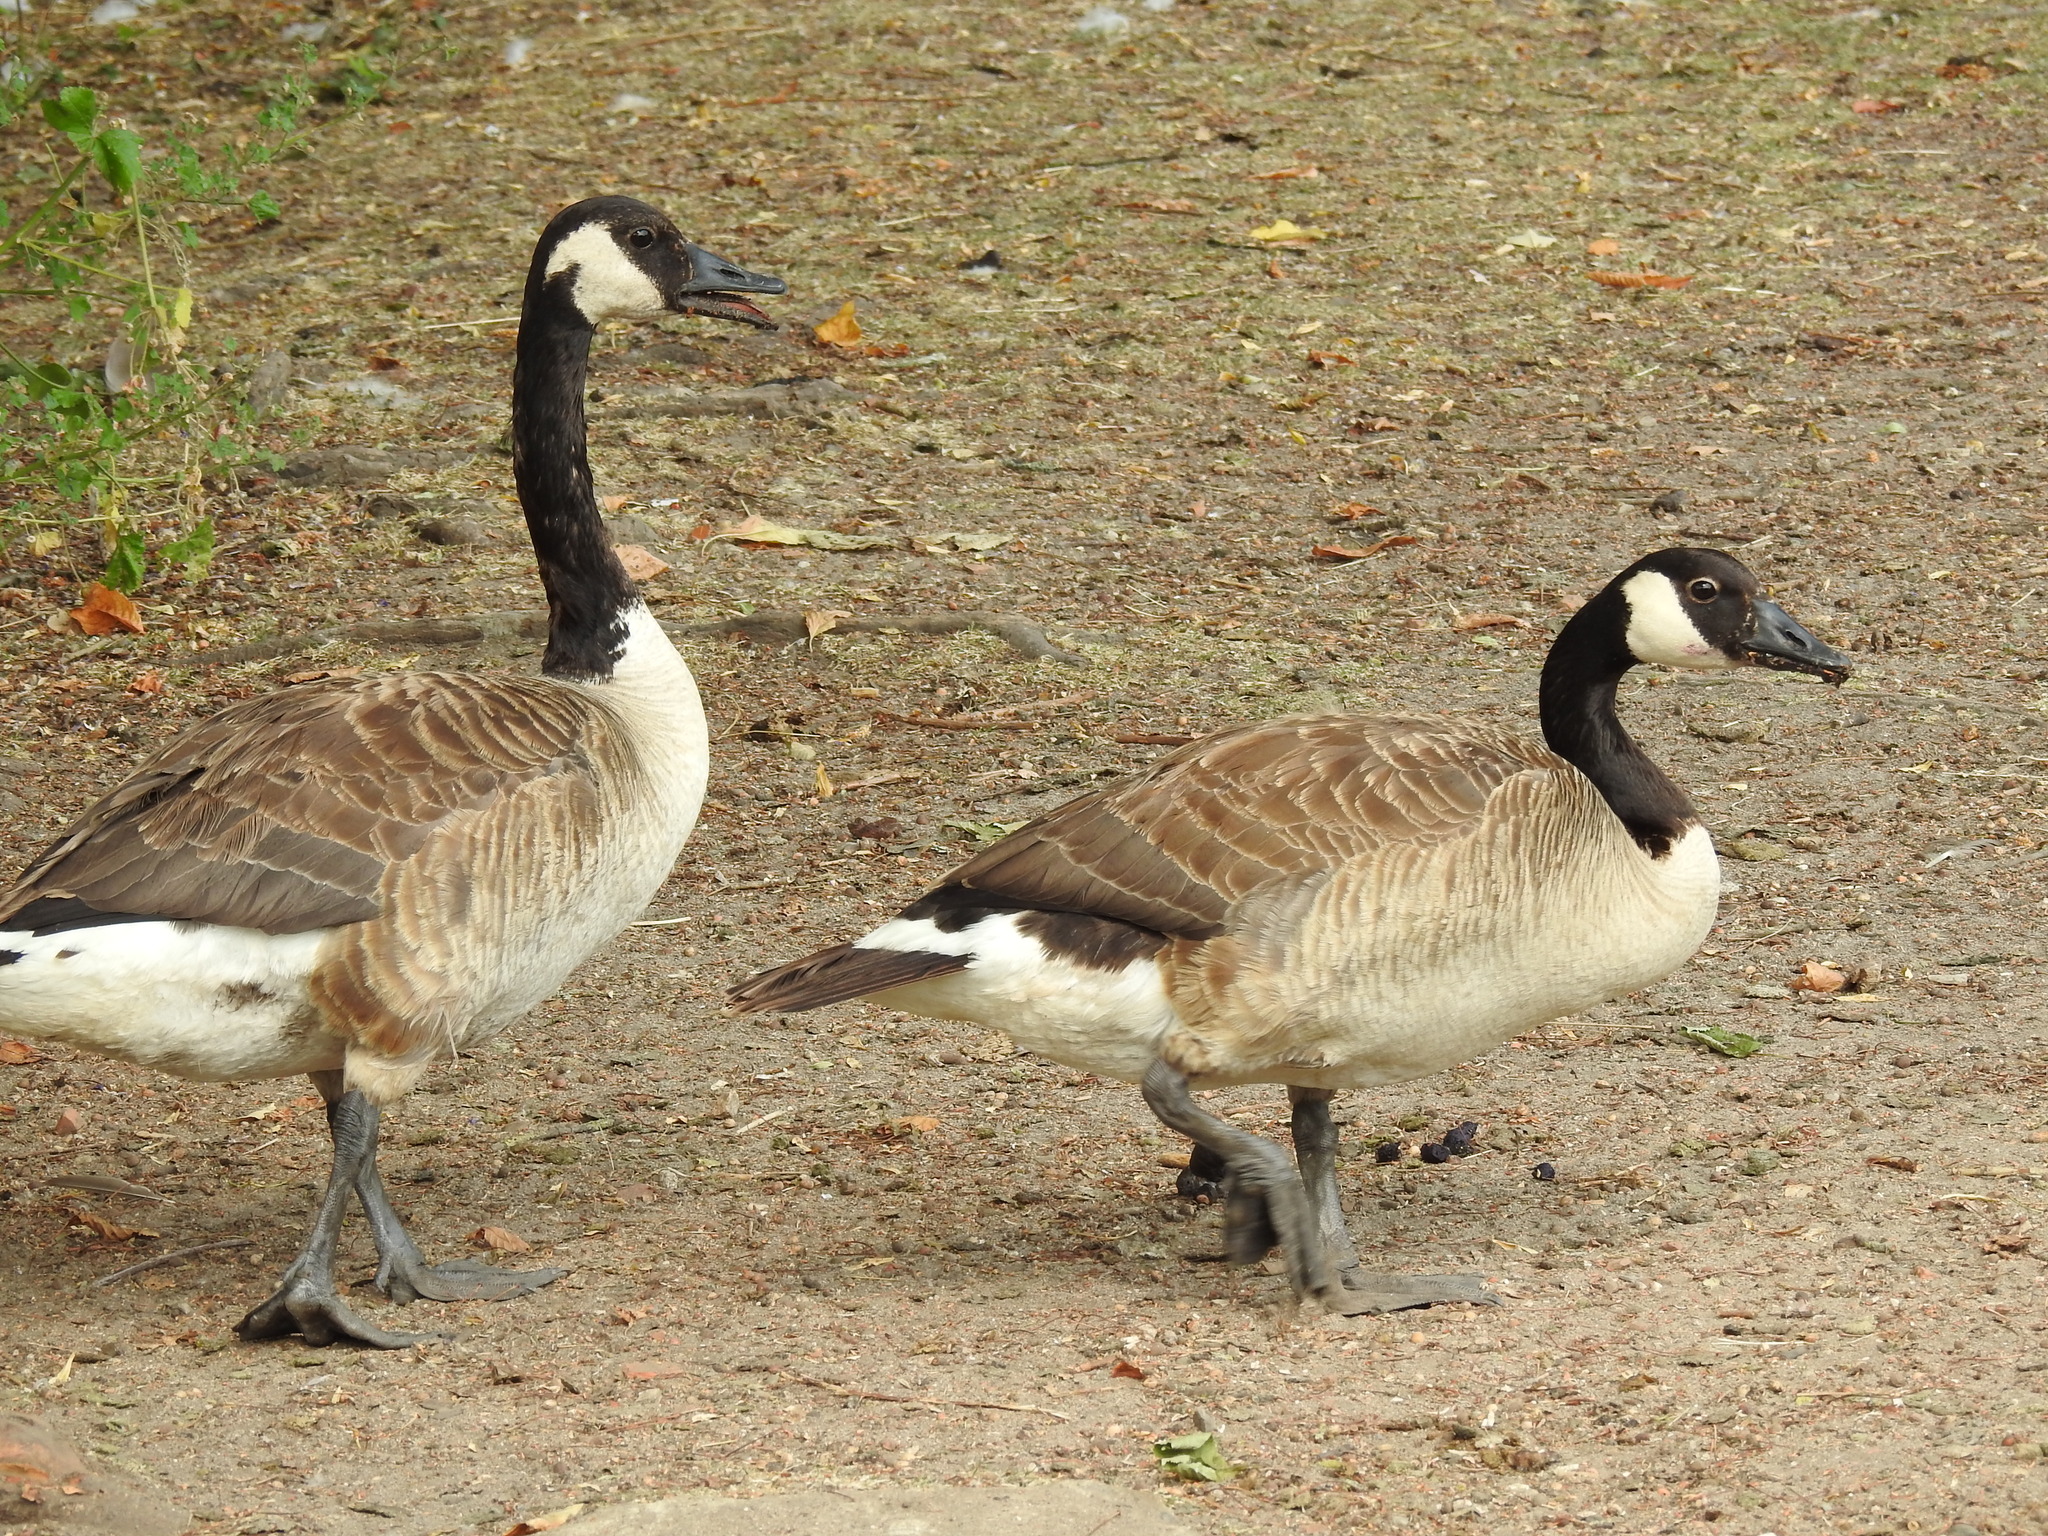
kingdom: Animalia
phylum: Chordata
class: Aves
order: Anseriformes
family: Anatidae
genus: Branta
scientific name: Branta canadensis
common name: Canada goose
